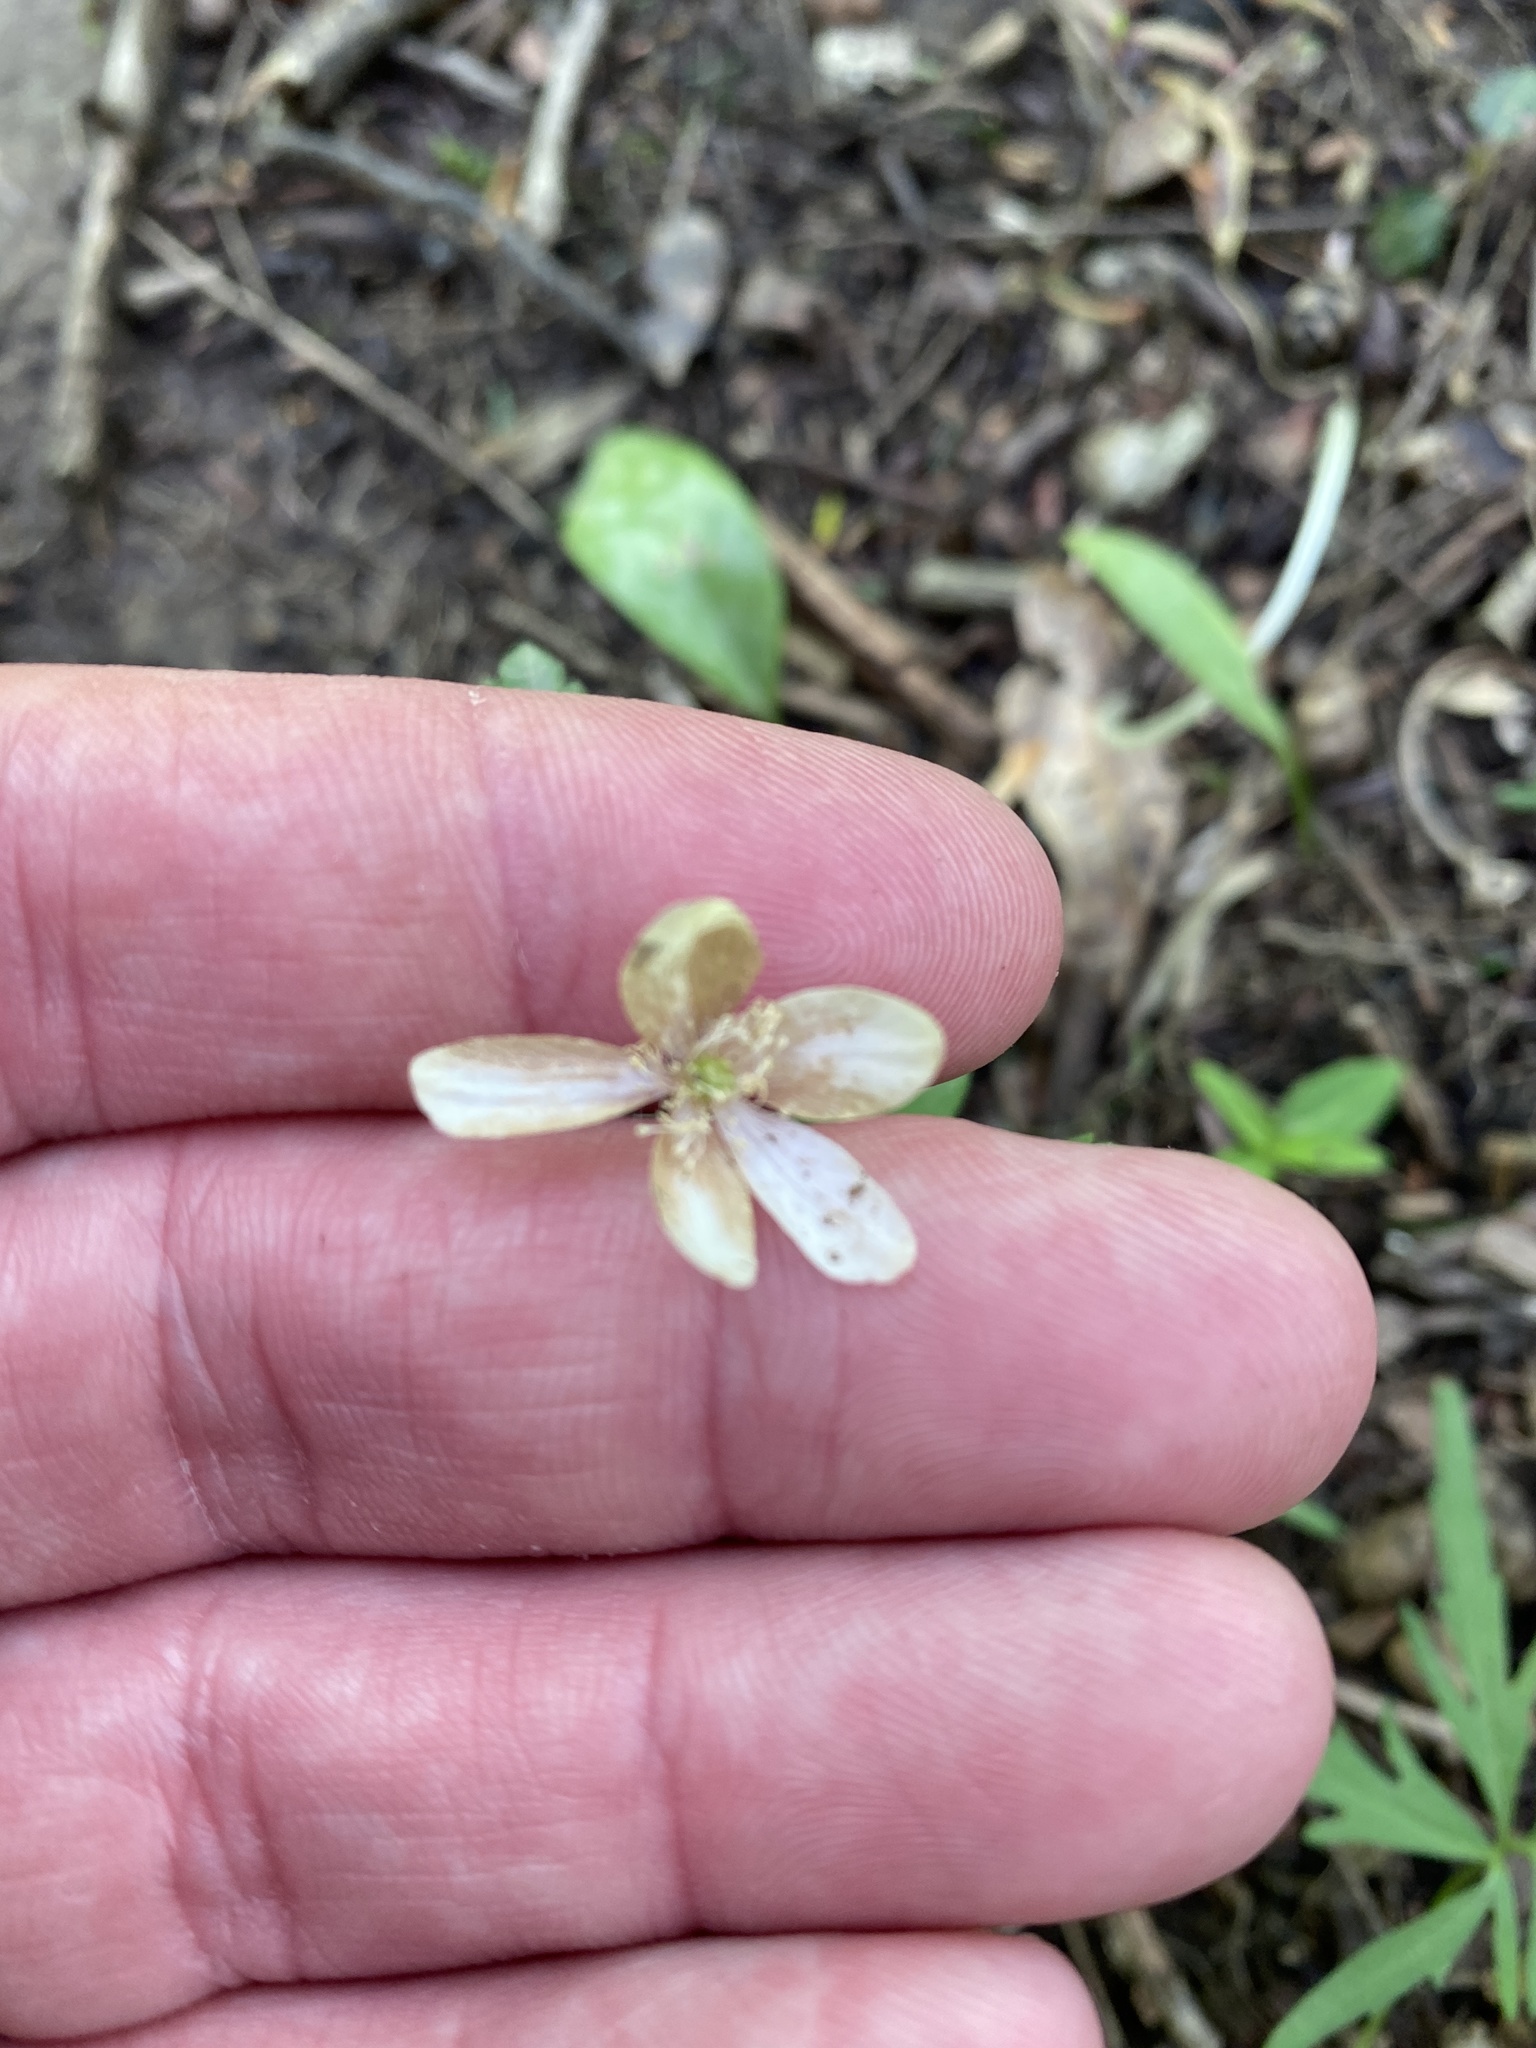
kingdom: Plantae
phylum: Tracheophyta
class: Magnoliopsida
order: Ranunculales
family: Ranunculaceae
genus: Anemone
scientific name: Anemone quinquefolia
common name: Wood anemone
